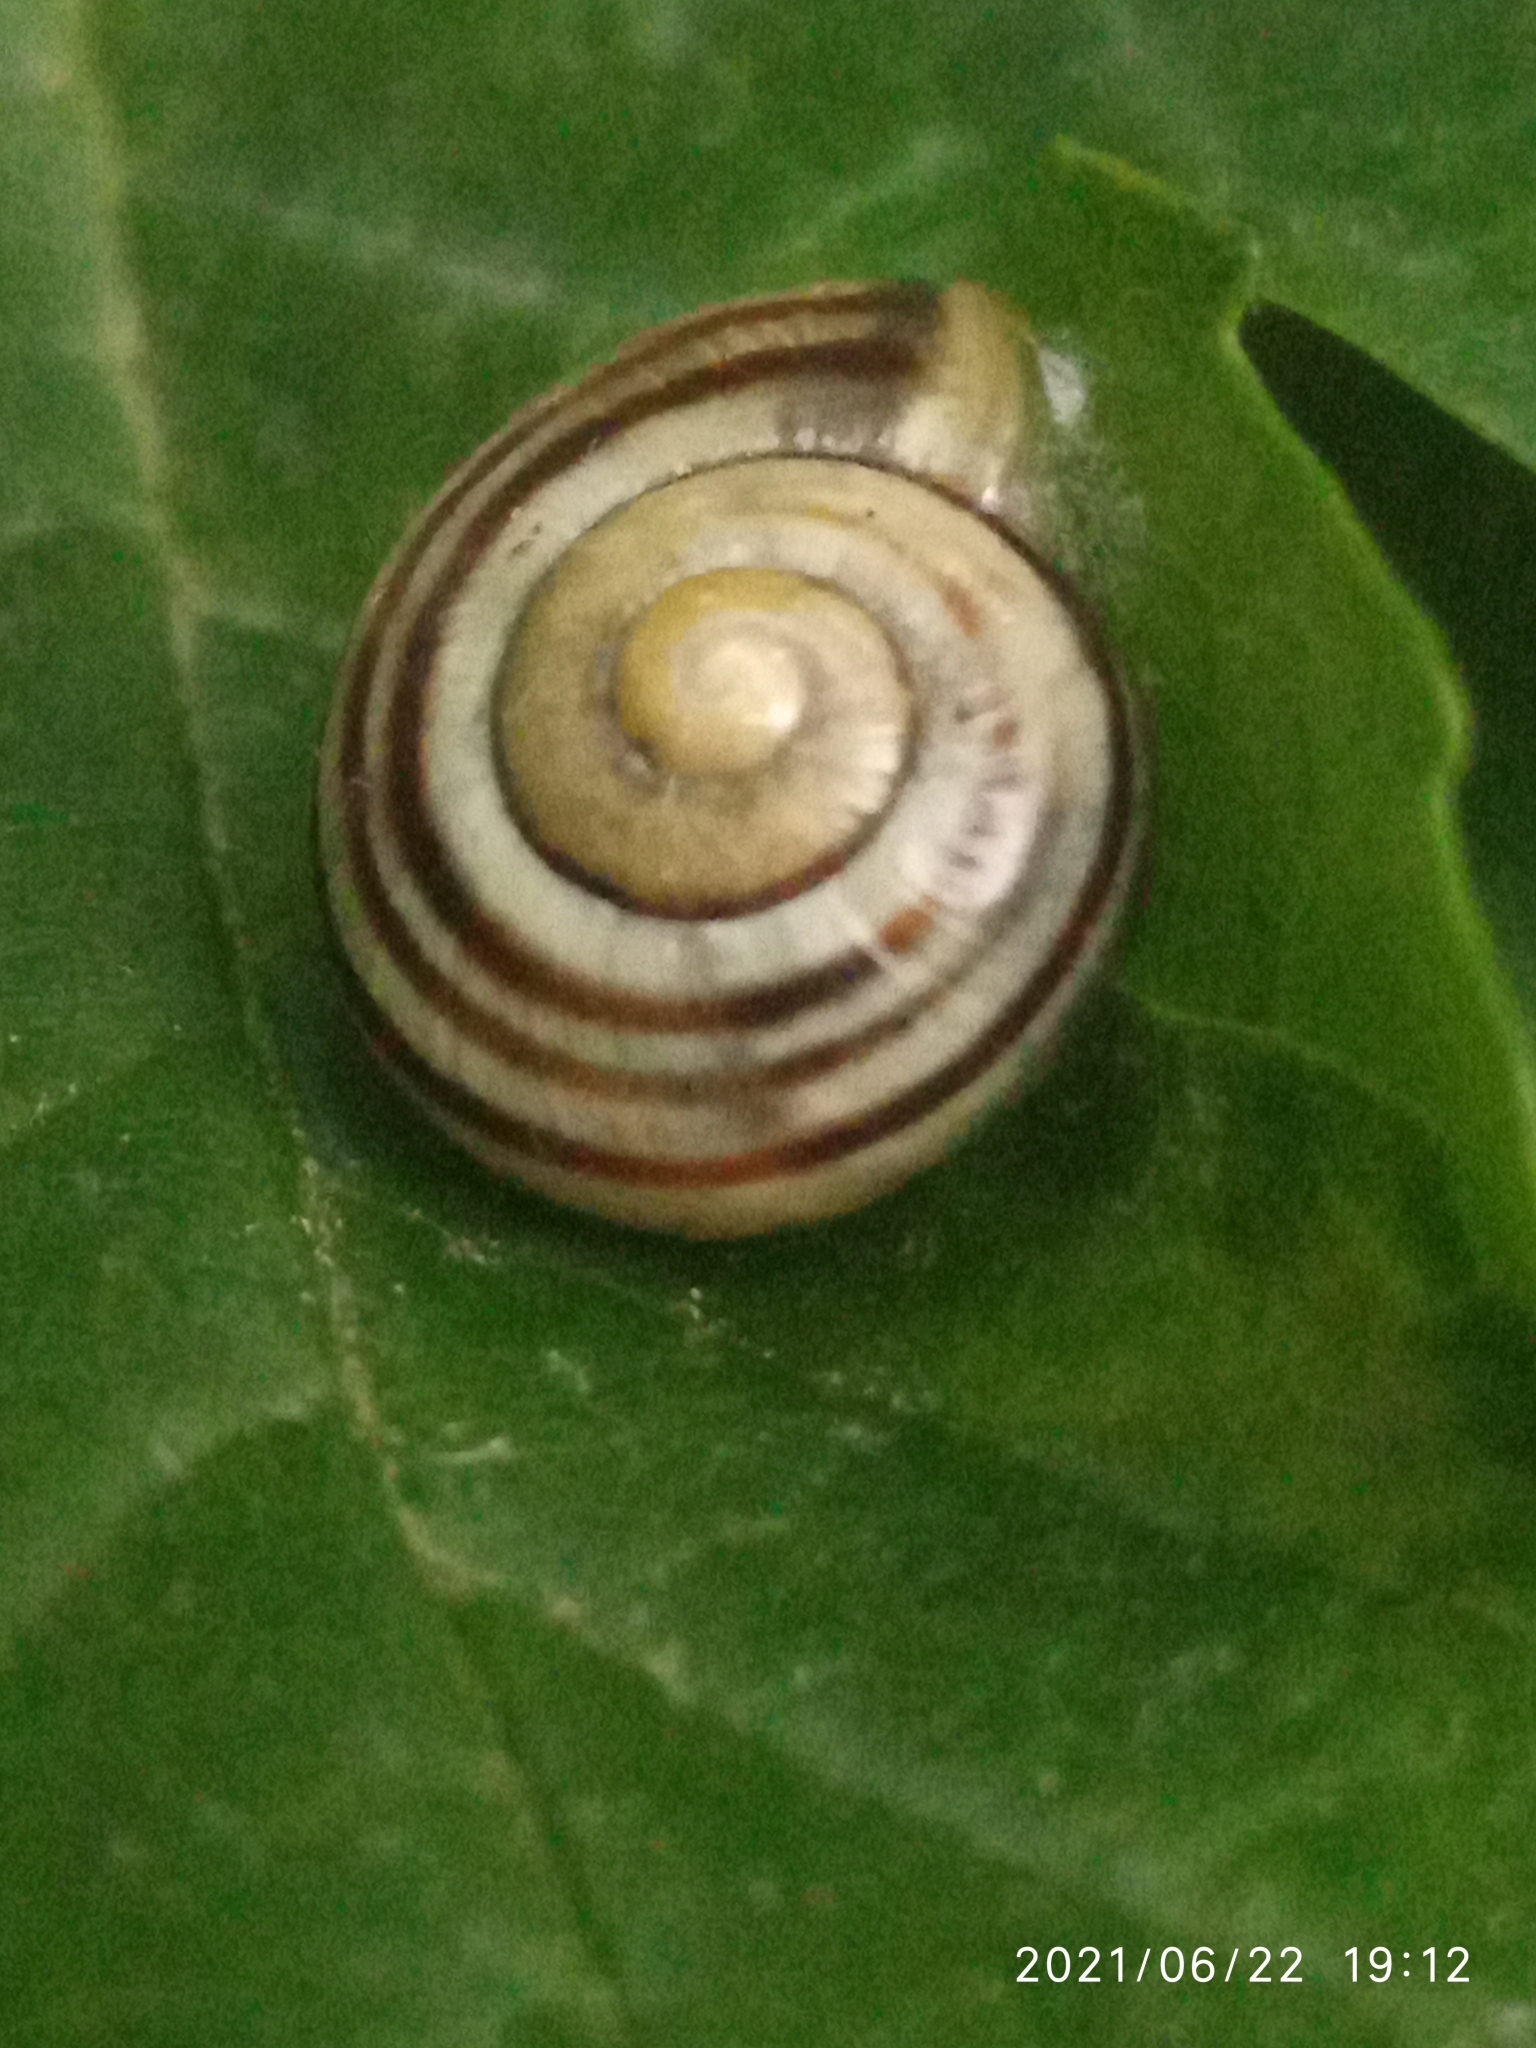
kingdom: Animalia
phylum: Mollusca
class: Gastropoda
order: Stylommatophora
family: Helicidae
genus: Cepaea
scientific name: Cepaea
